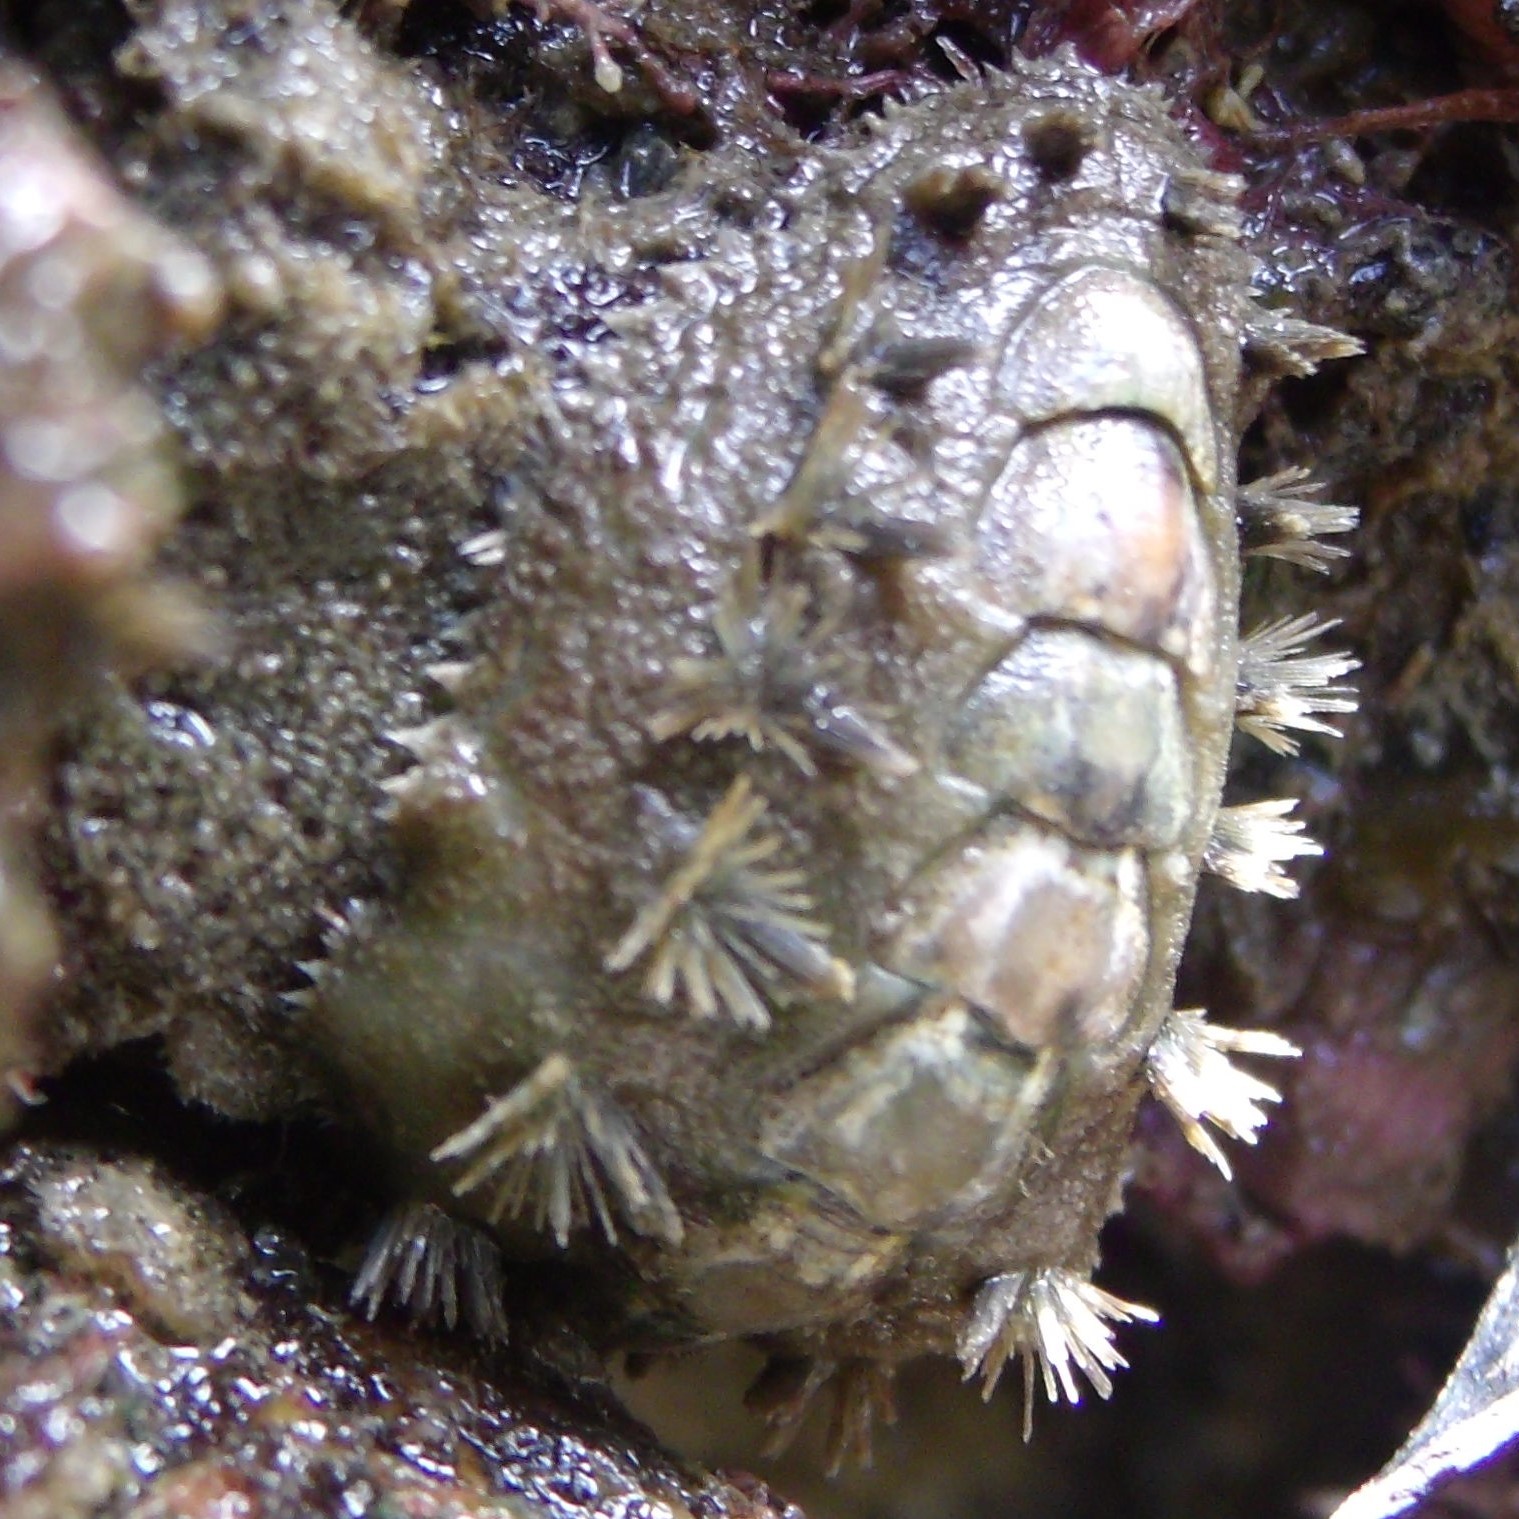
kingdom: Animalia
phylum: Mollusca
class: Polyplacophora
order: Chitonida
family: Acanthochitonidae
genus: Acanthochitona
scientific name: Acanthochitona zelandica
